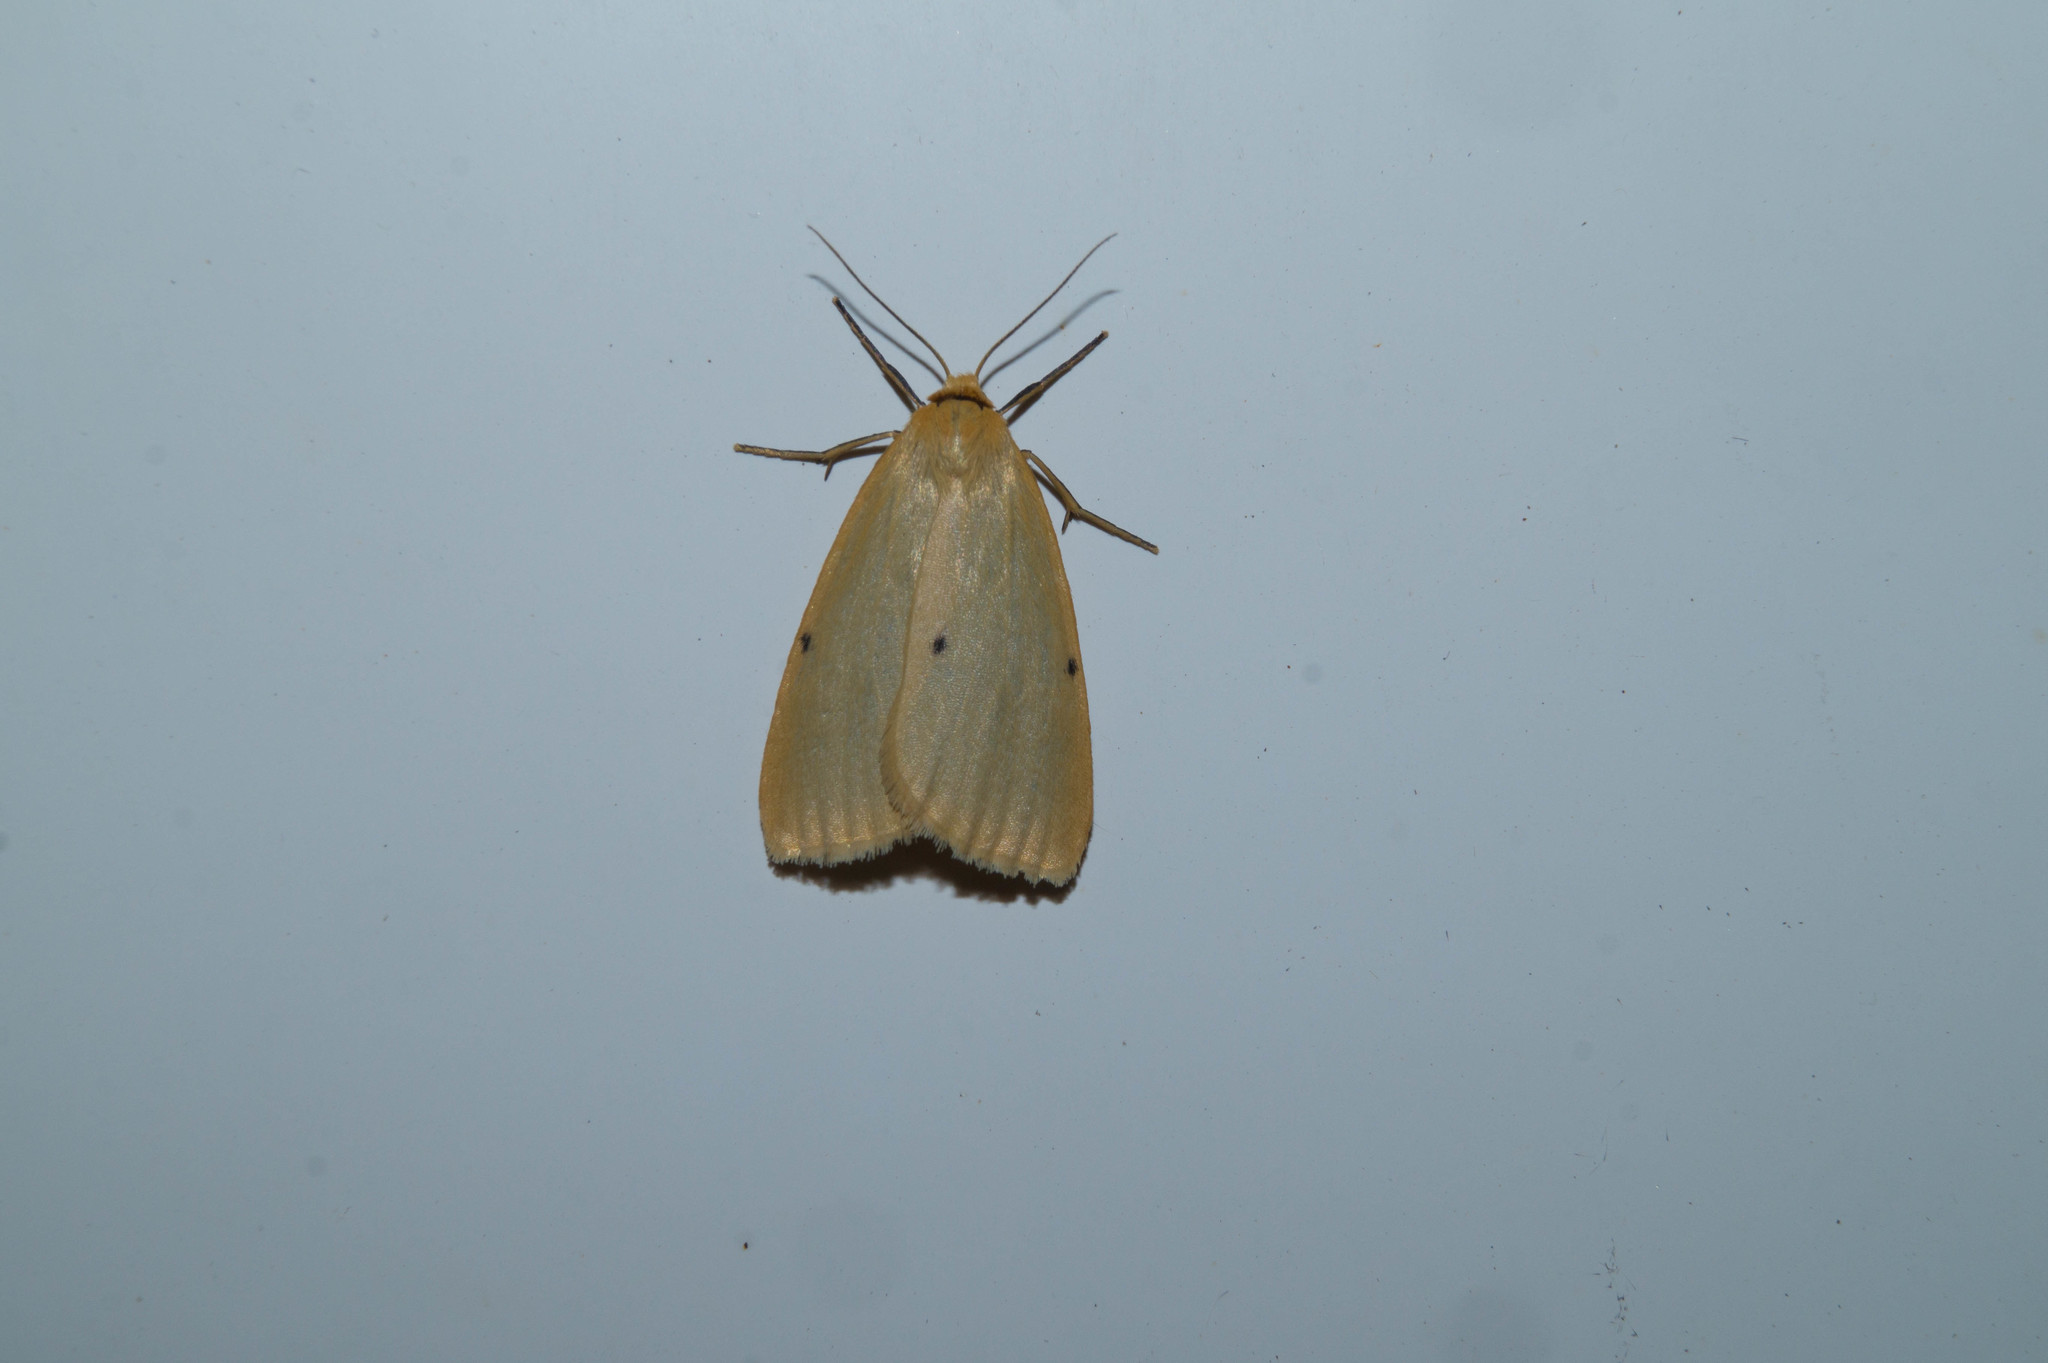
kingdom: Animalia
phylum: Arthropoda
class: Insecta
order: Lepidoptera
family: Erebidae
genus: Cybosia
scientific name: Cybosia mesomella
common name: Four-dotted footman
